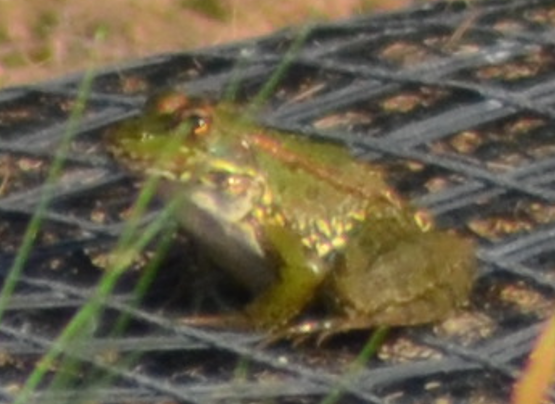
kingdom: Animalia
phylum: Chordata
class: Amphibia
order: Anura
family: Ranidae
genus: Pelophylax
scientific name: Pelophylax perezi
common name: Perez's frog
